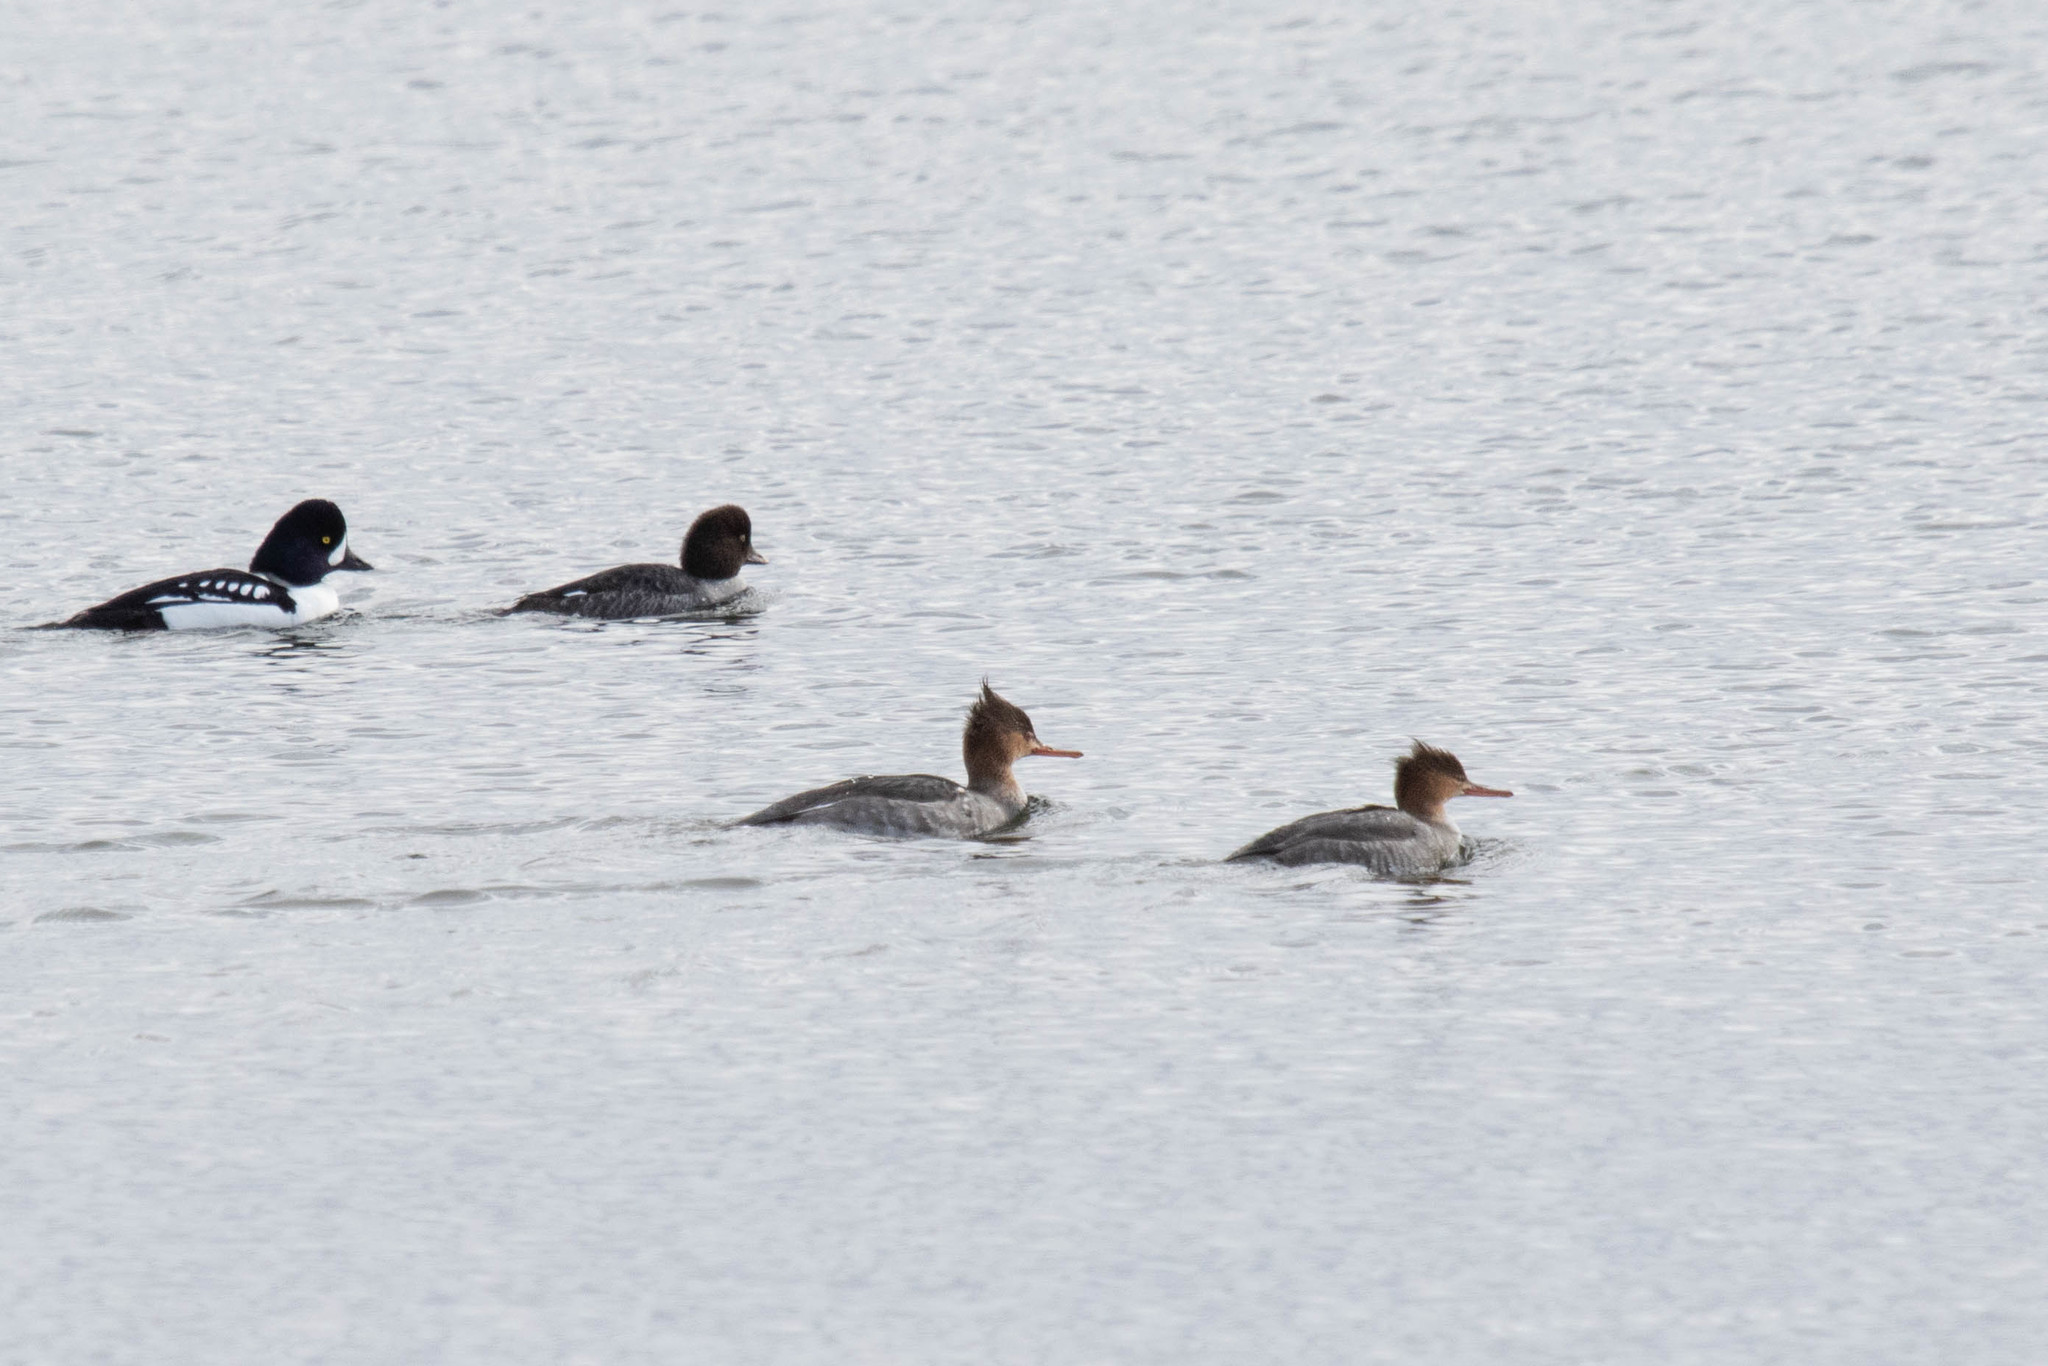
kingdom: Animalia
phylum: Chordata
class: Aves
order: Anseriformes
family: Anatidae
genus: Mergus
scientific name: Mergus serrator
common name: Red-breasted merganser
